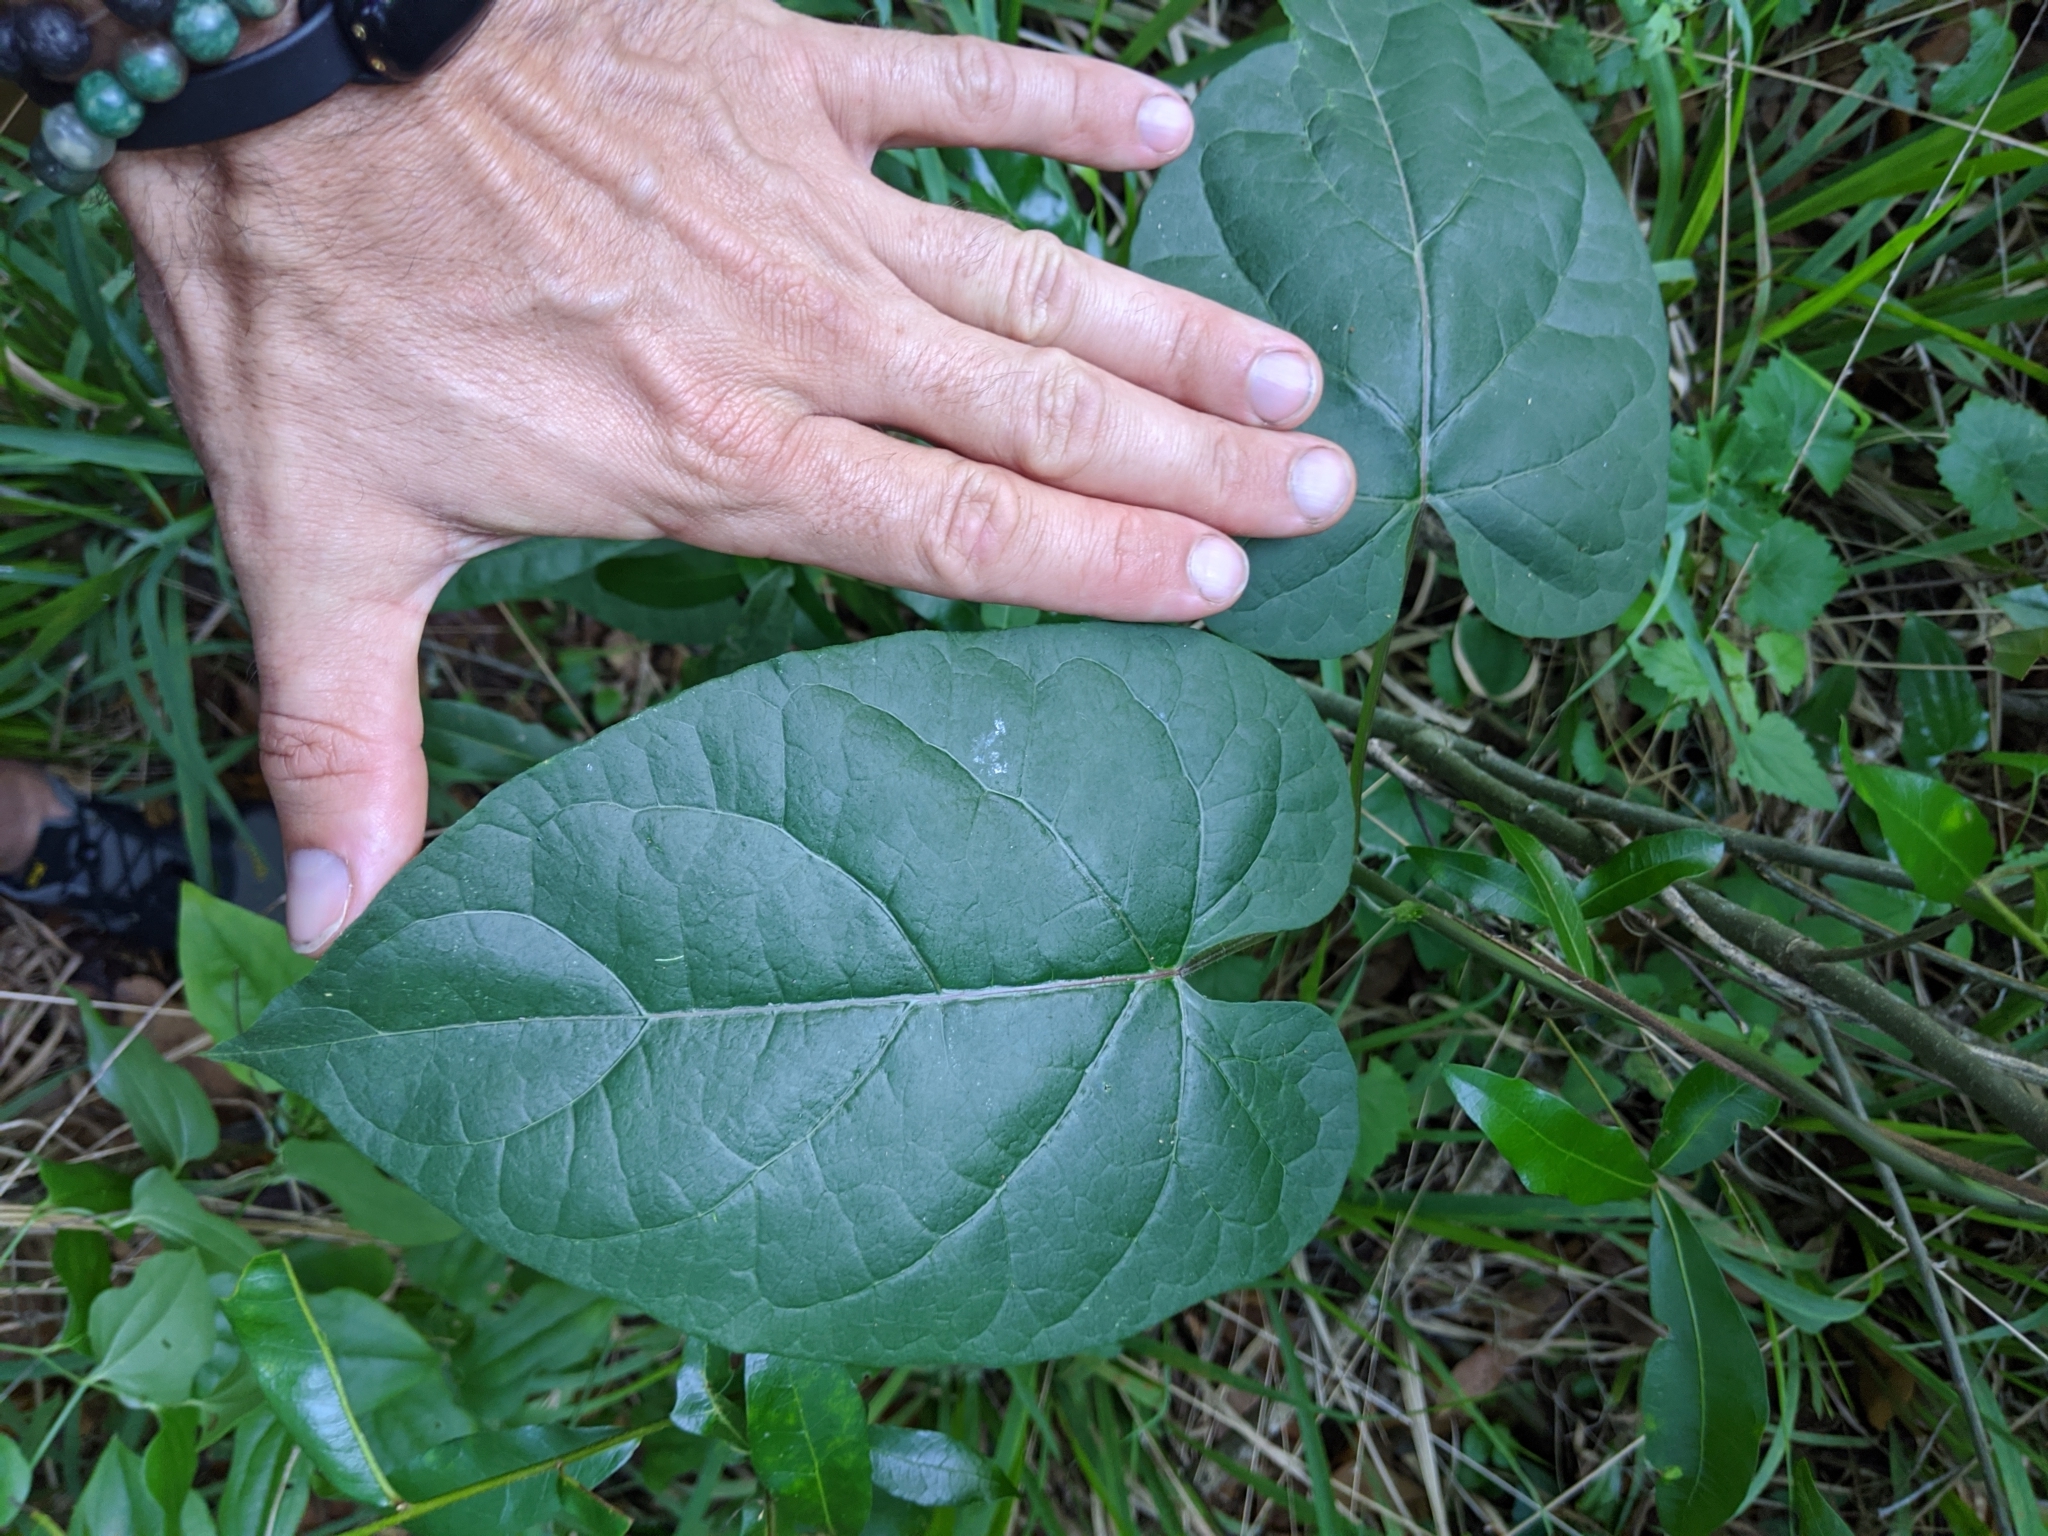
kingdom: Plantae
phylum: Tracheophyta
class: Magnoliopsida
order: Gentianales
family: Apocynaceae
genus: Gonolobus
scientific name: Gonolobus suberosus
